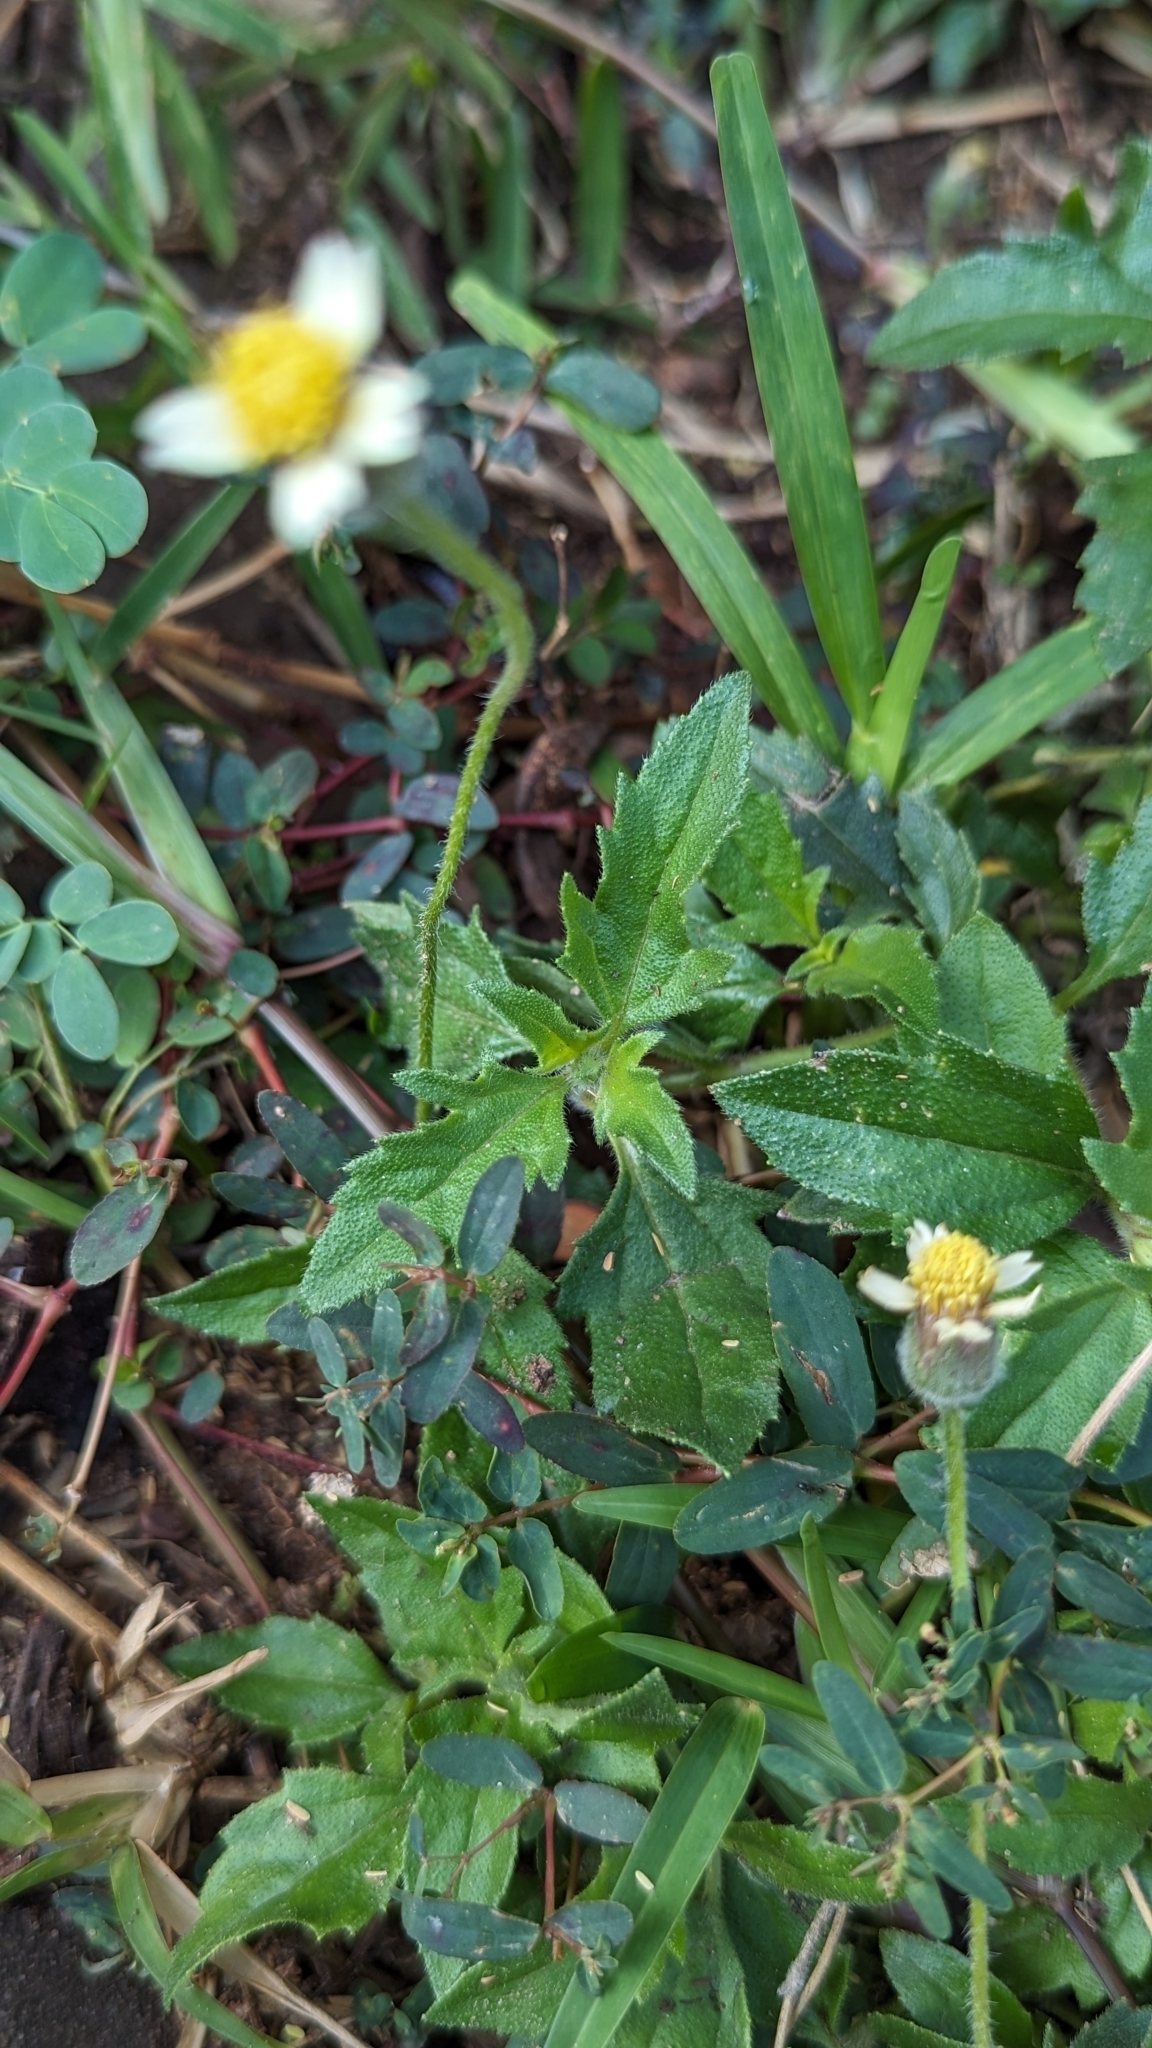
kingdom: Plantae
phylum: Tracheophyta
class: Magnoliopsida
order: Asterales
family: Asteraceae
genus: Tridax
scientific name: Tridax procumbens
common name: Coatbuttons
